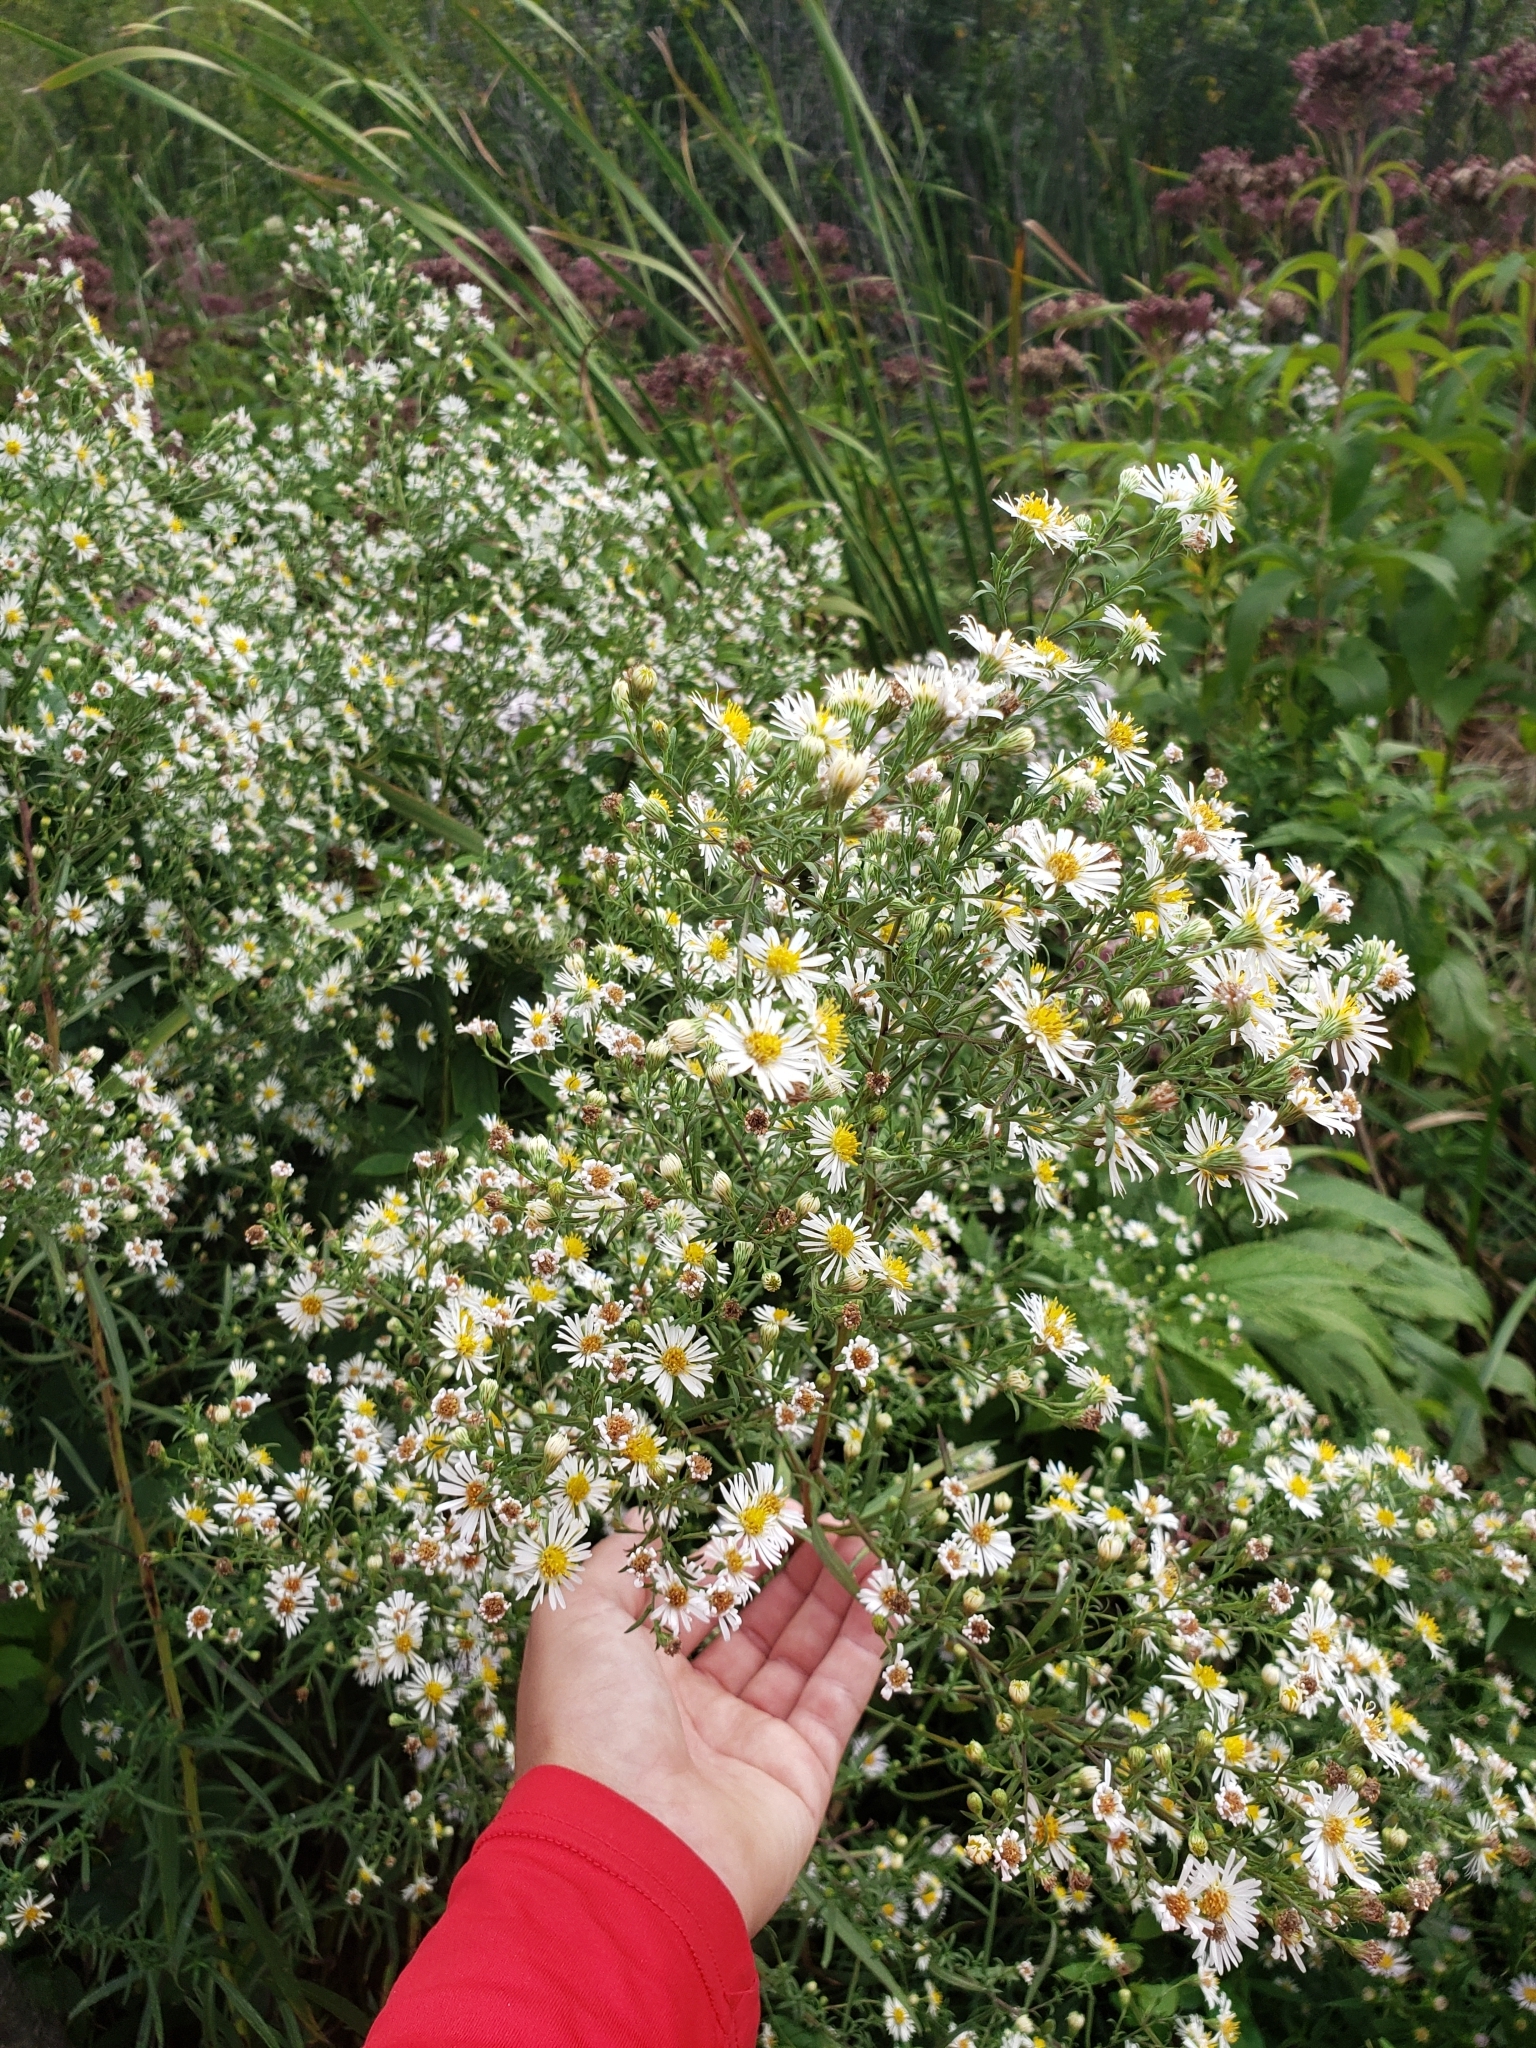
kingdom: Plantae
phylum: Tracheophyta
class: Magnoliopsida
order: Asterales
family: Asteraceae
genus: Symphyotrichum
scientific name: Symphyotrichum lanceolatum
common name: Panicled aster
